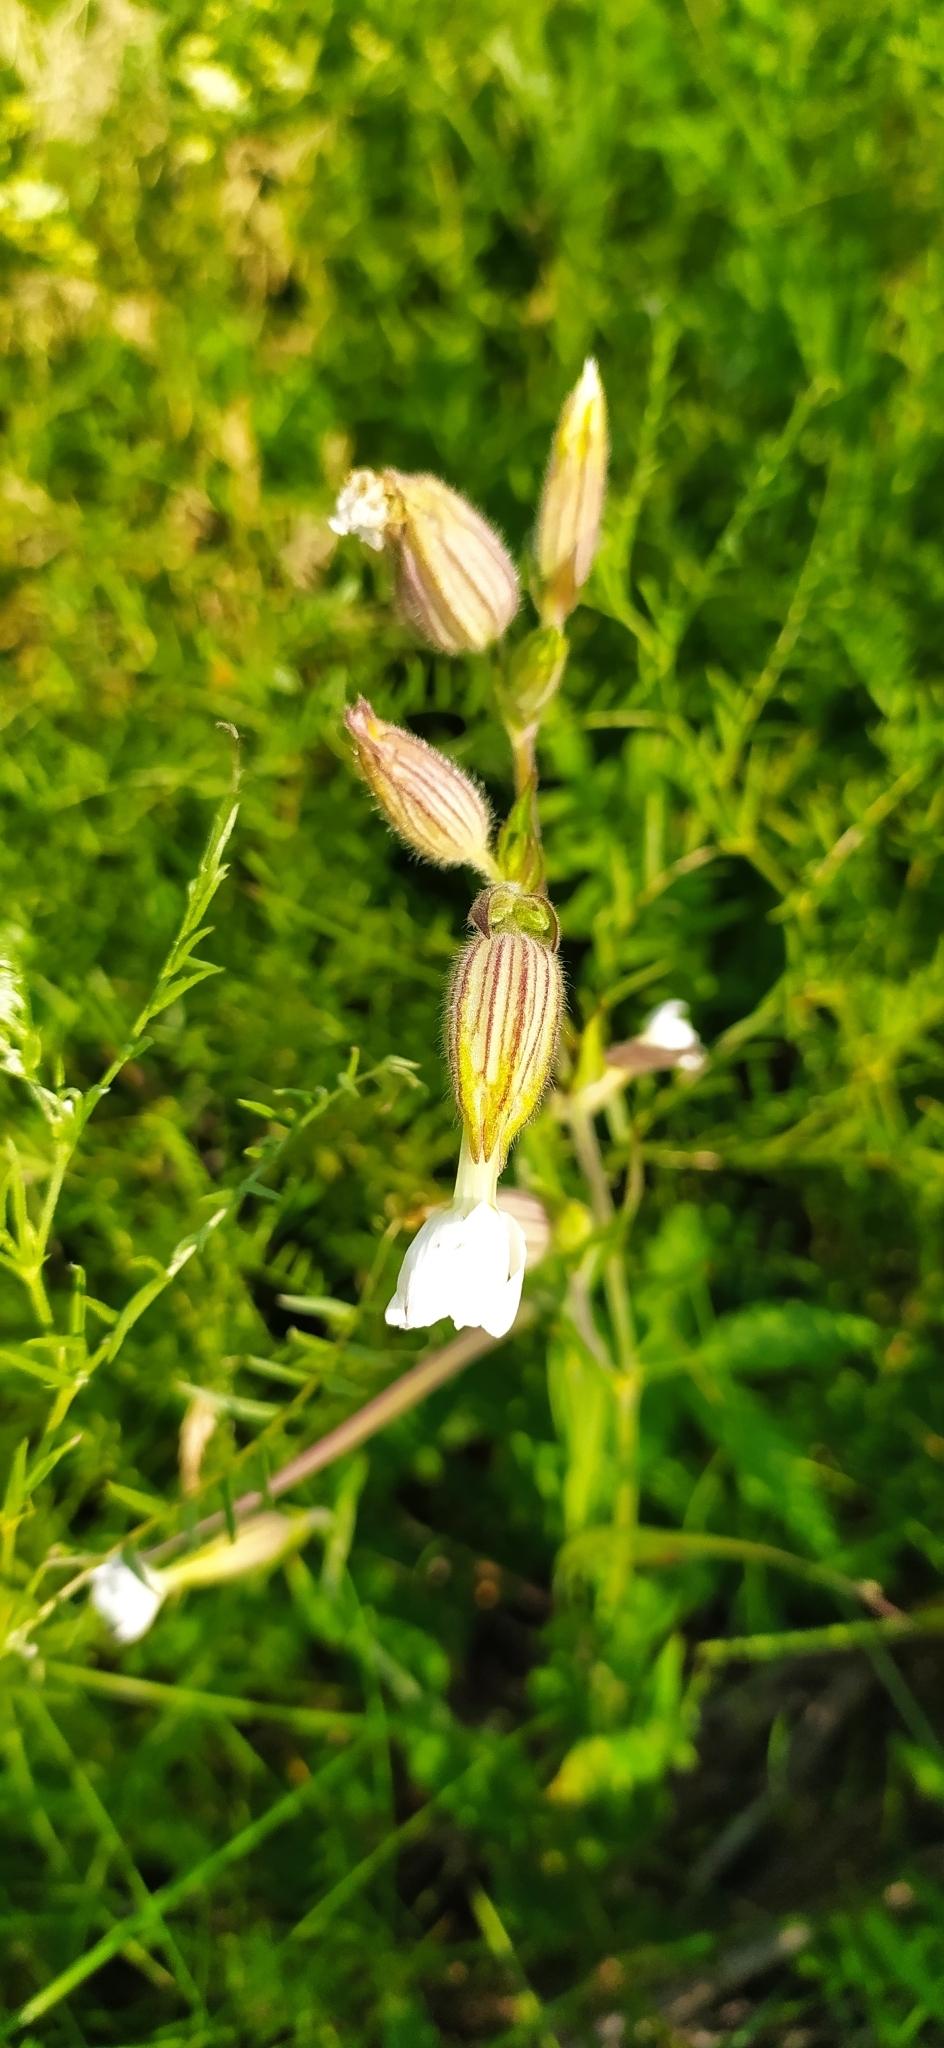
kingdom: Plantae
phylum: Tracheophyta
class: Magnoliopsida
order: Caryophyllales
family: Caryophyllaceae
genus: Silene
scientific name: Silene latifolia
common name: White campion
